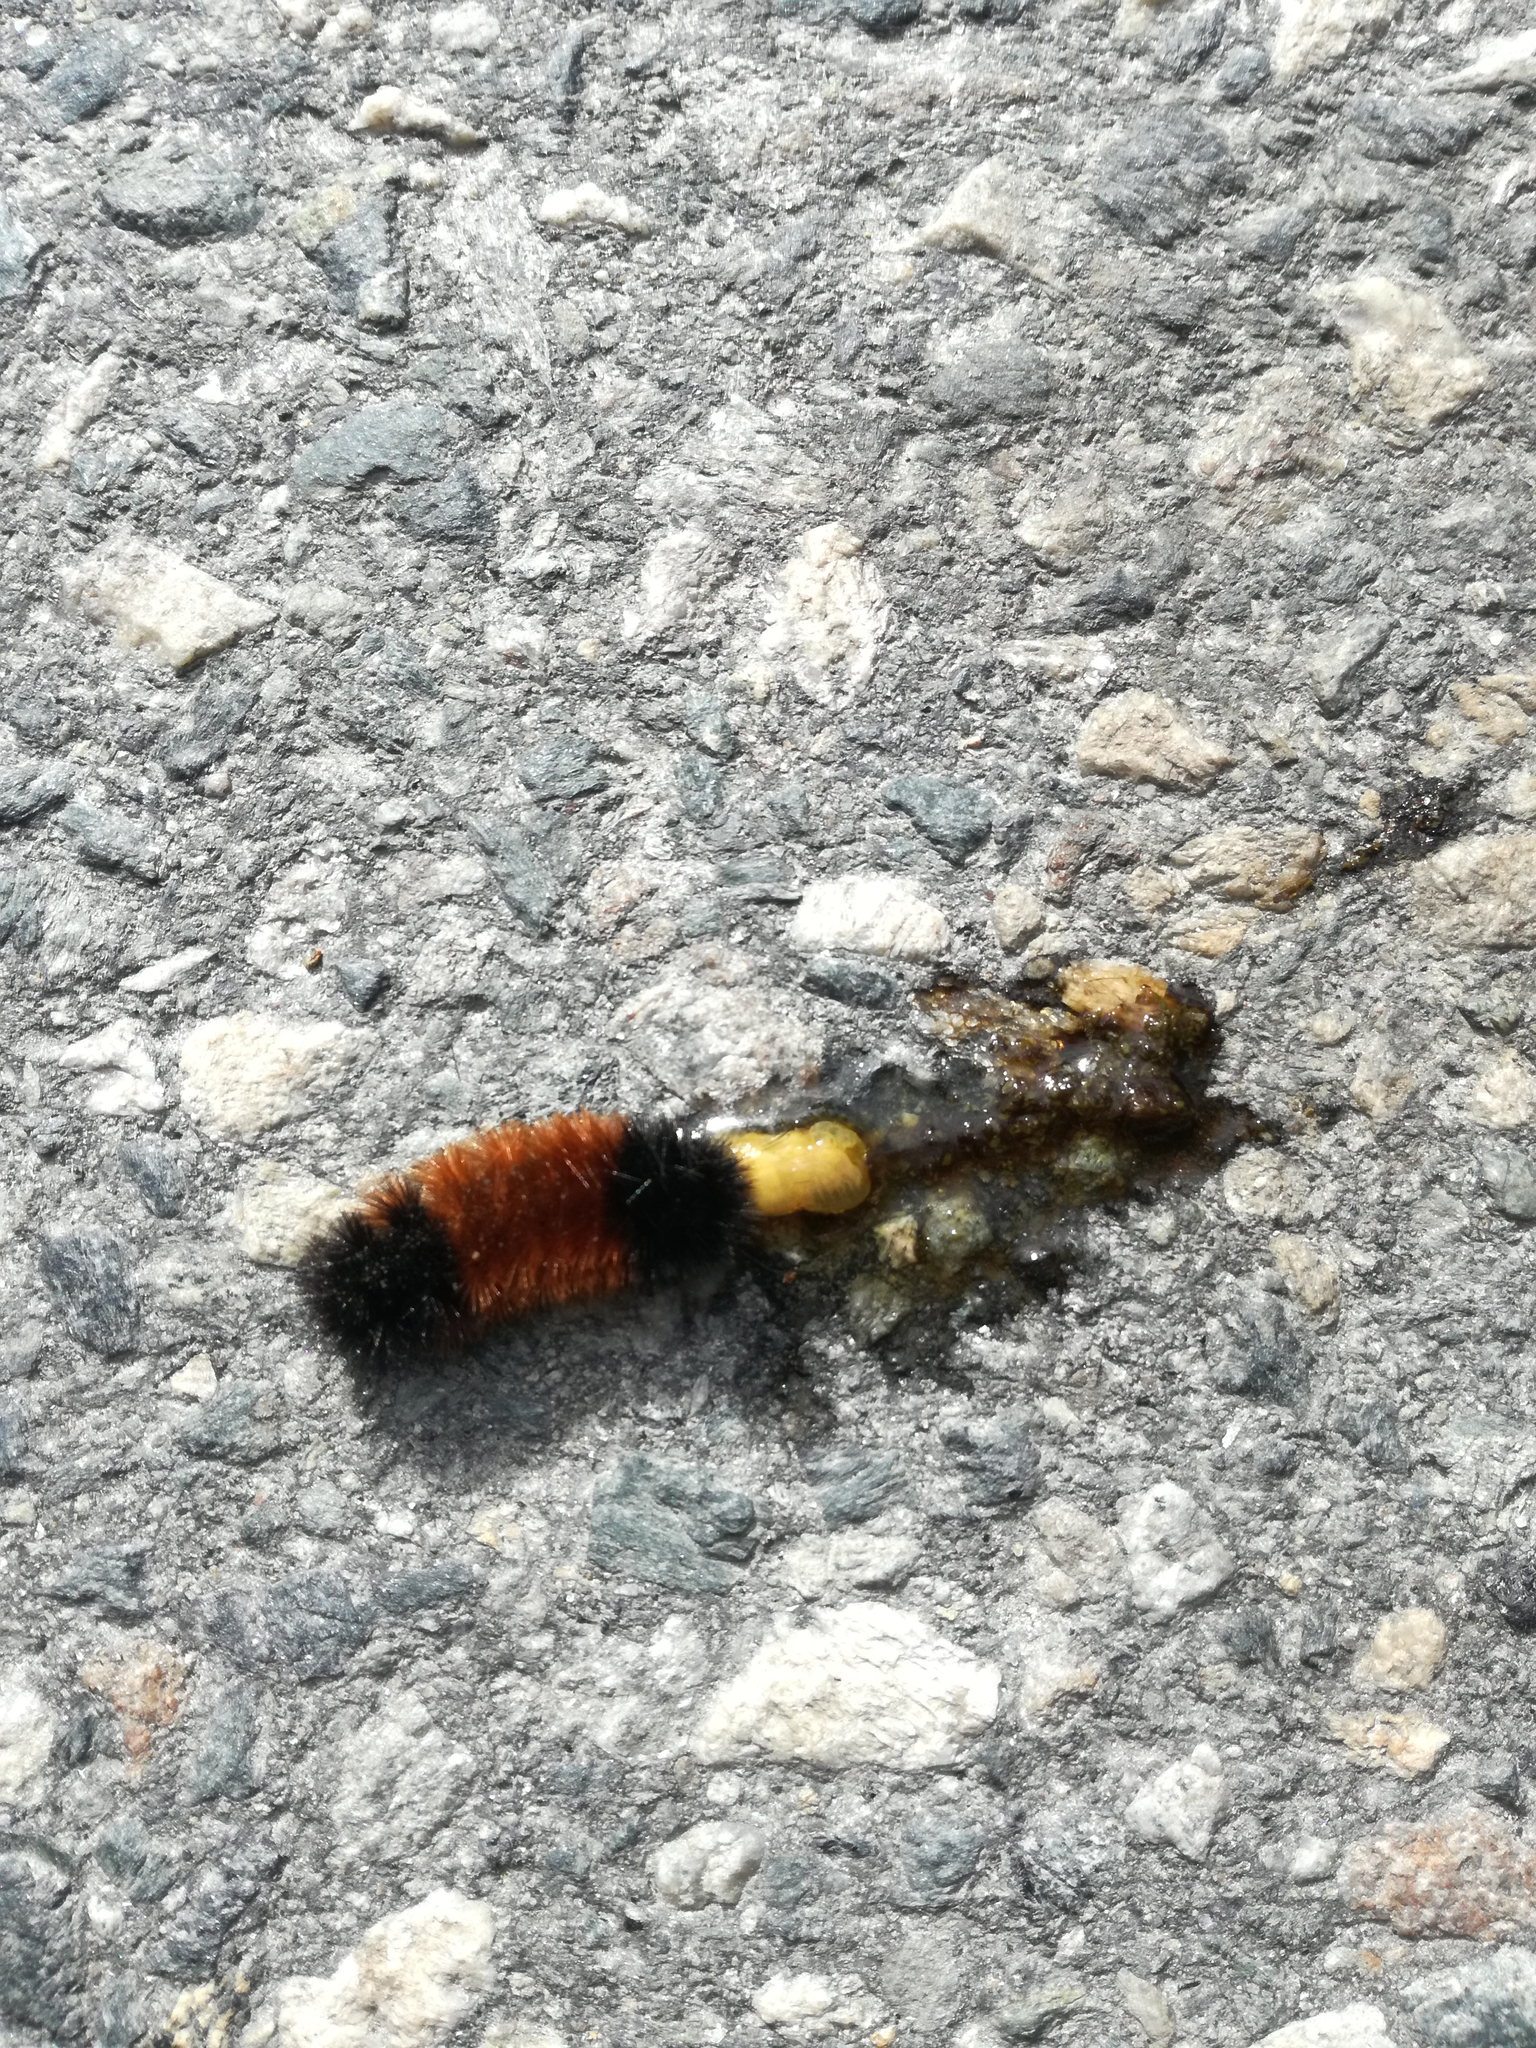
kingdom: Animalia
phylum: Arthropoda
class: Insecta
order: Lepidoptera
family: Erebidae
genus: Pyrrharctia
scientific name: Pyrrharctia isabella
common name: Isabella tiger moth
